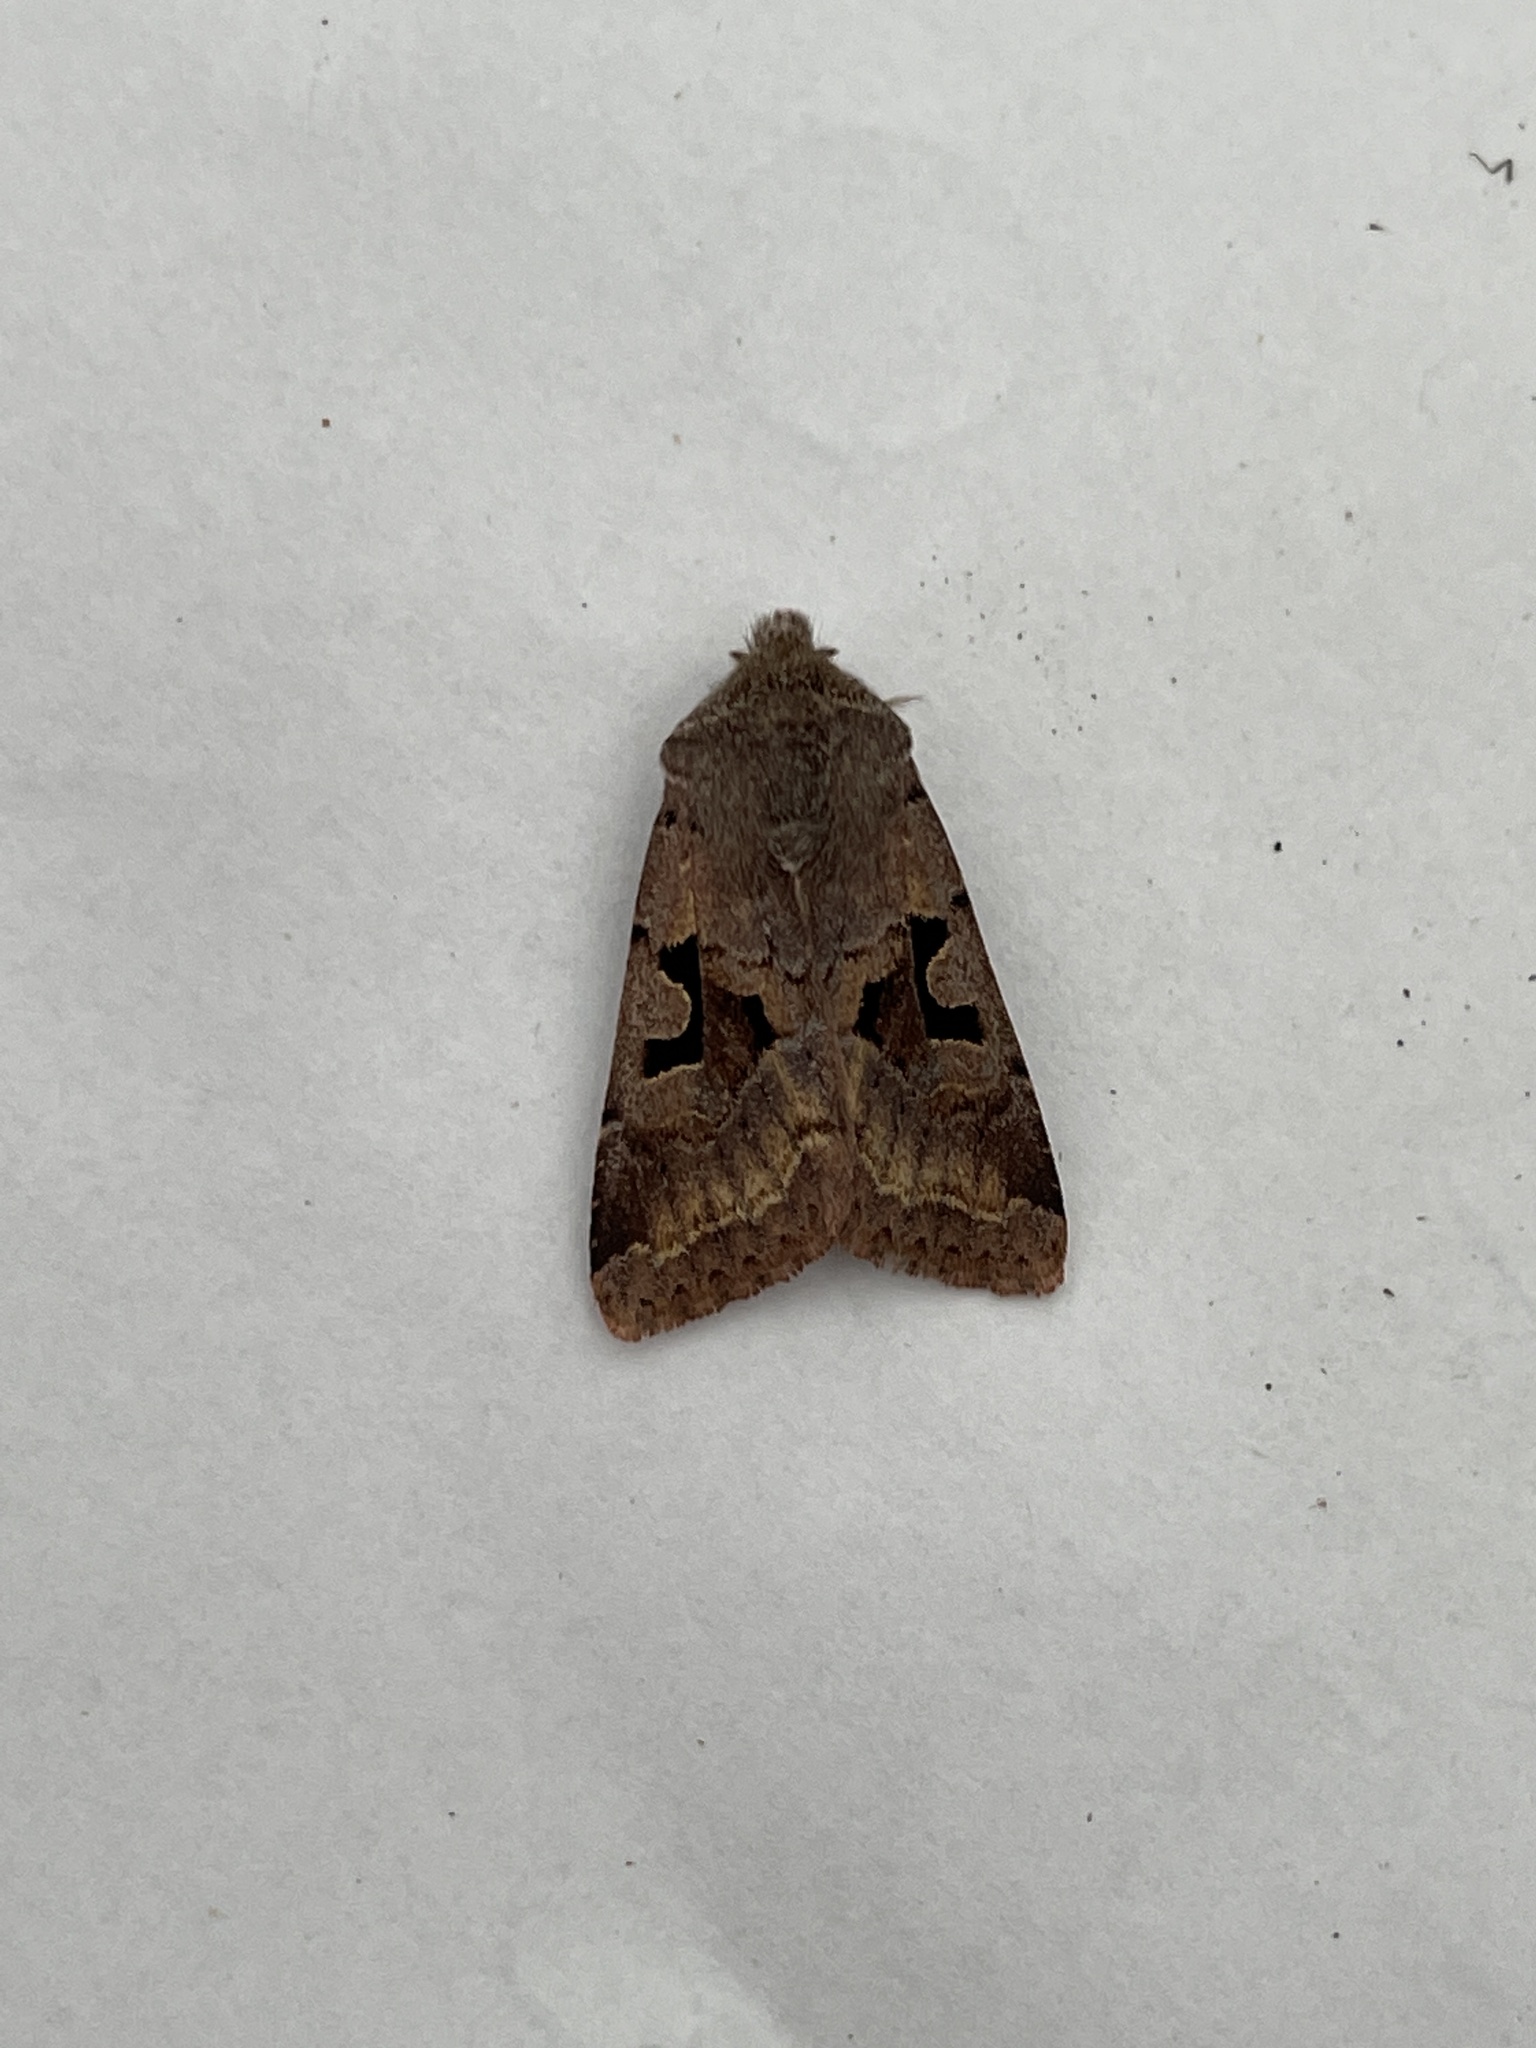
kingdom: Animalia
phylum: Arthropoda
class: Insecta
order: Lepidoptera
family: Noctuidae
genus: Orthosia
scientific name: Orthosia gothica
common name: Hebrew character
